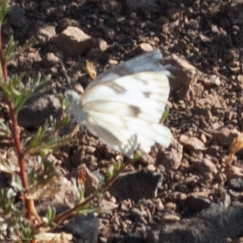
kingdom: Animalia
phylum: Arthropoda
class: Insecta
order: Lepidoptera
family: Pieridae
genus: Pontia
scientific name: Pontia protodice
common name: Checkered white
